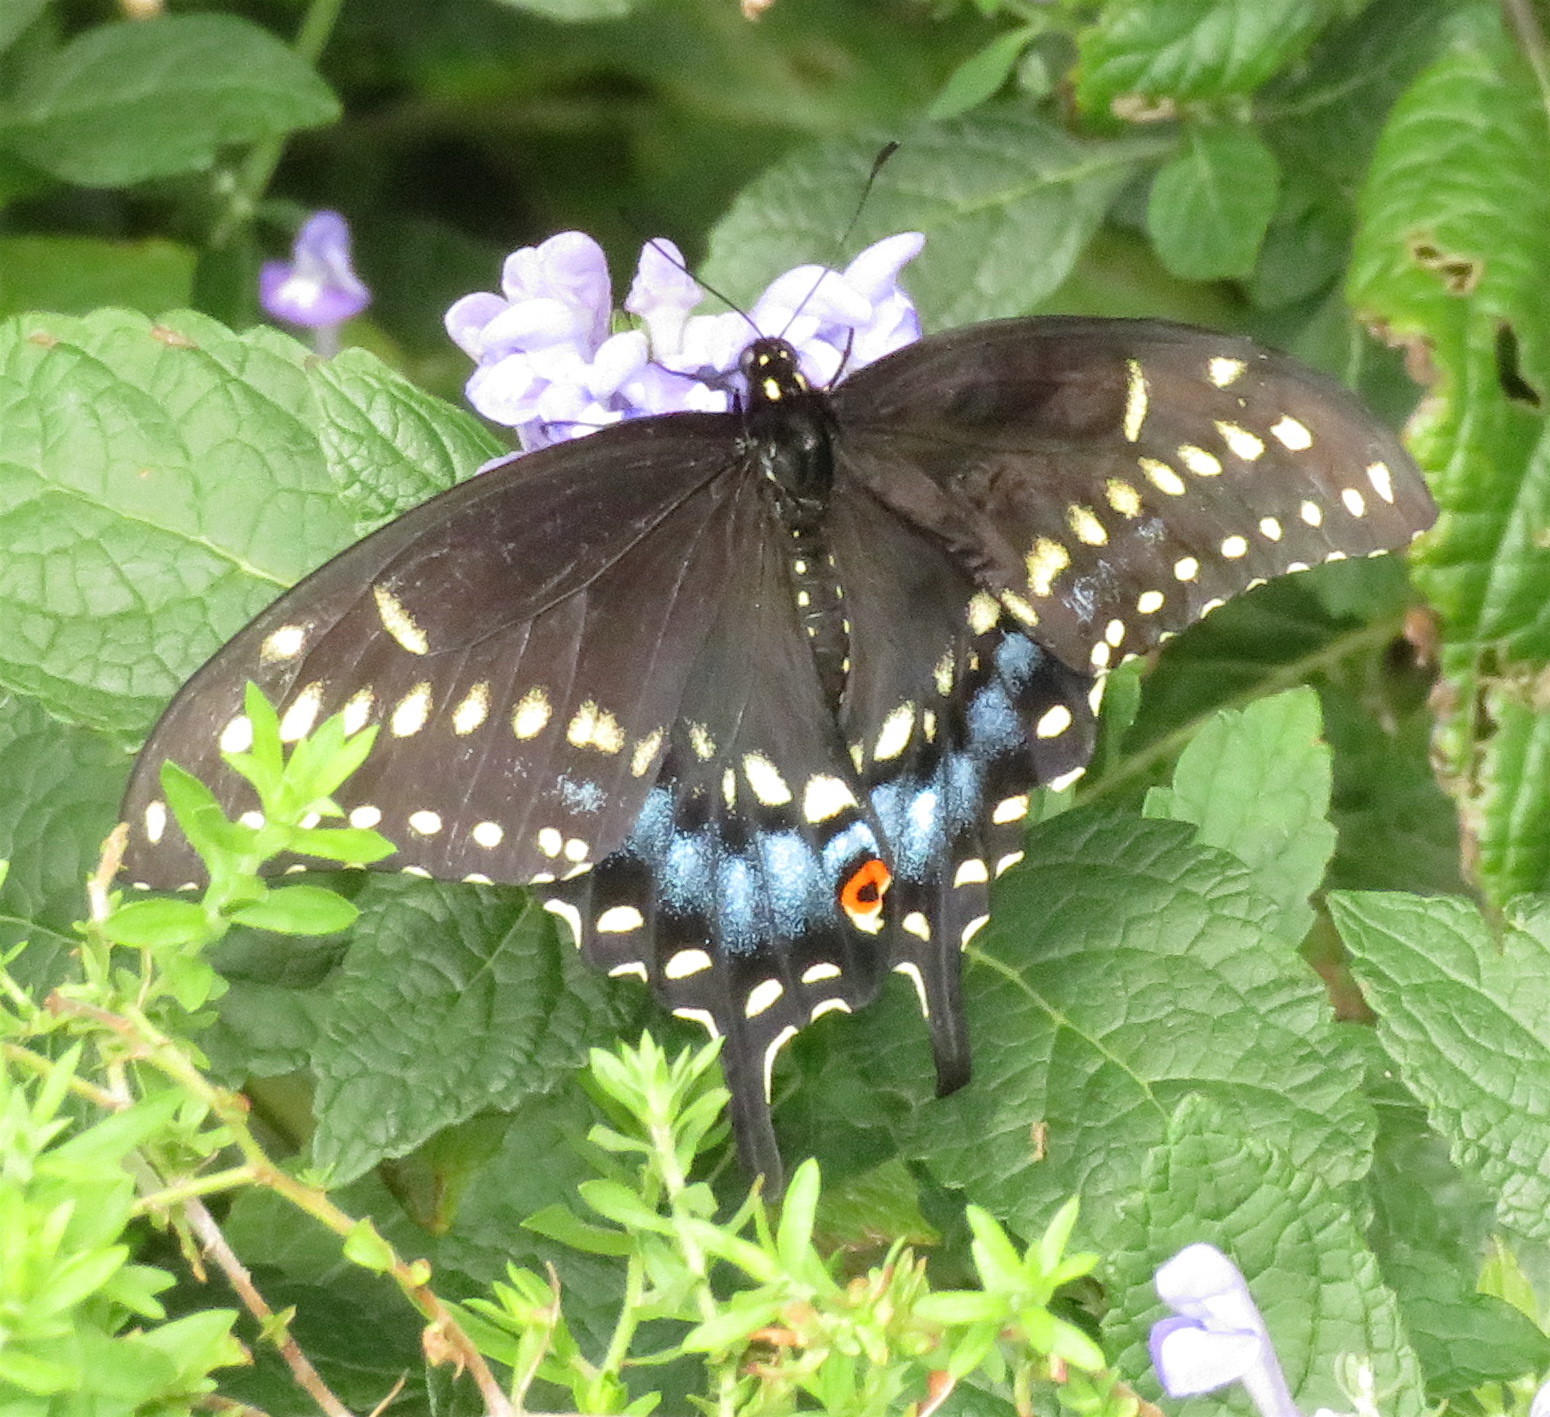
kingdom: Animalia
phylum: Arthropoda
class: Insecta
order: Lepidoptera
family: Papilionidae
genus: Papilio
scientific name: Papilio polyxenes
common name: Black swallowtail
